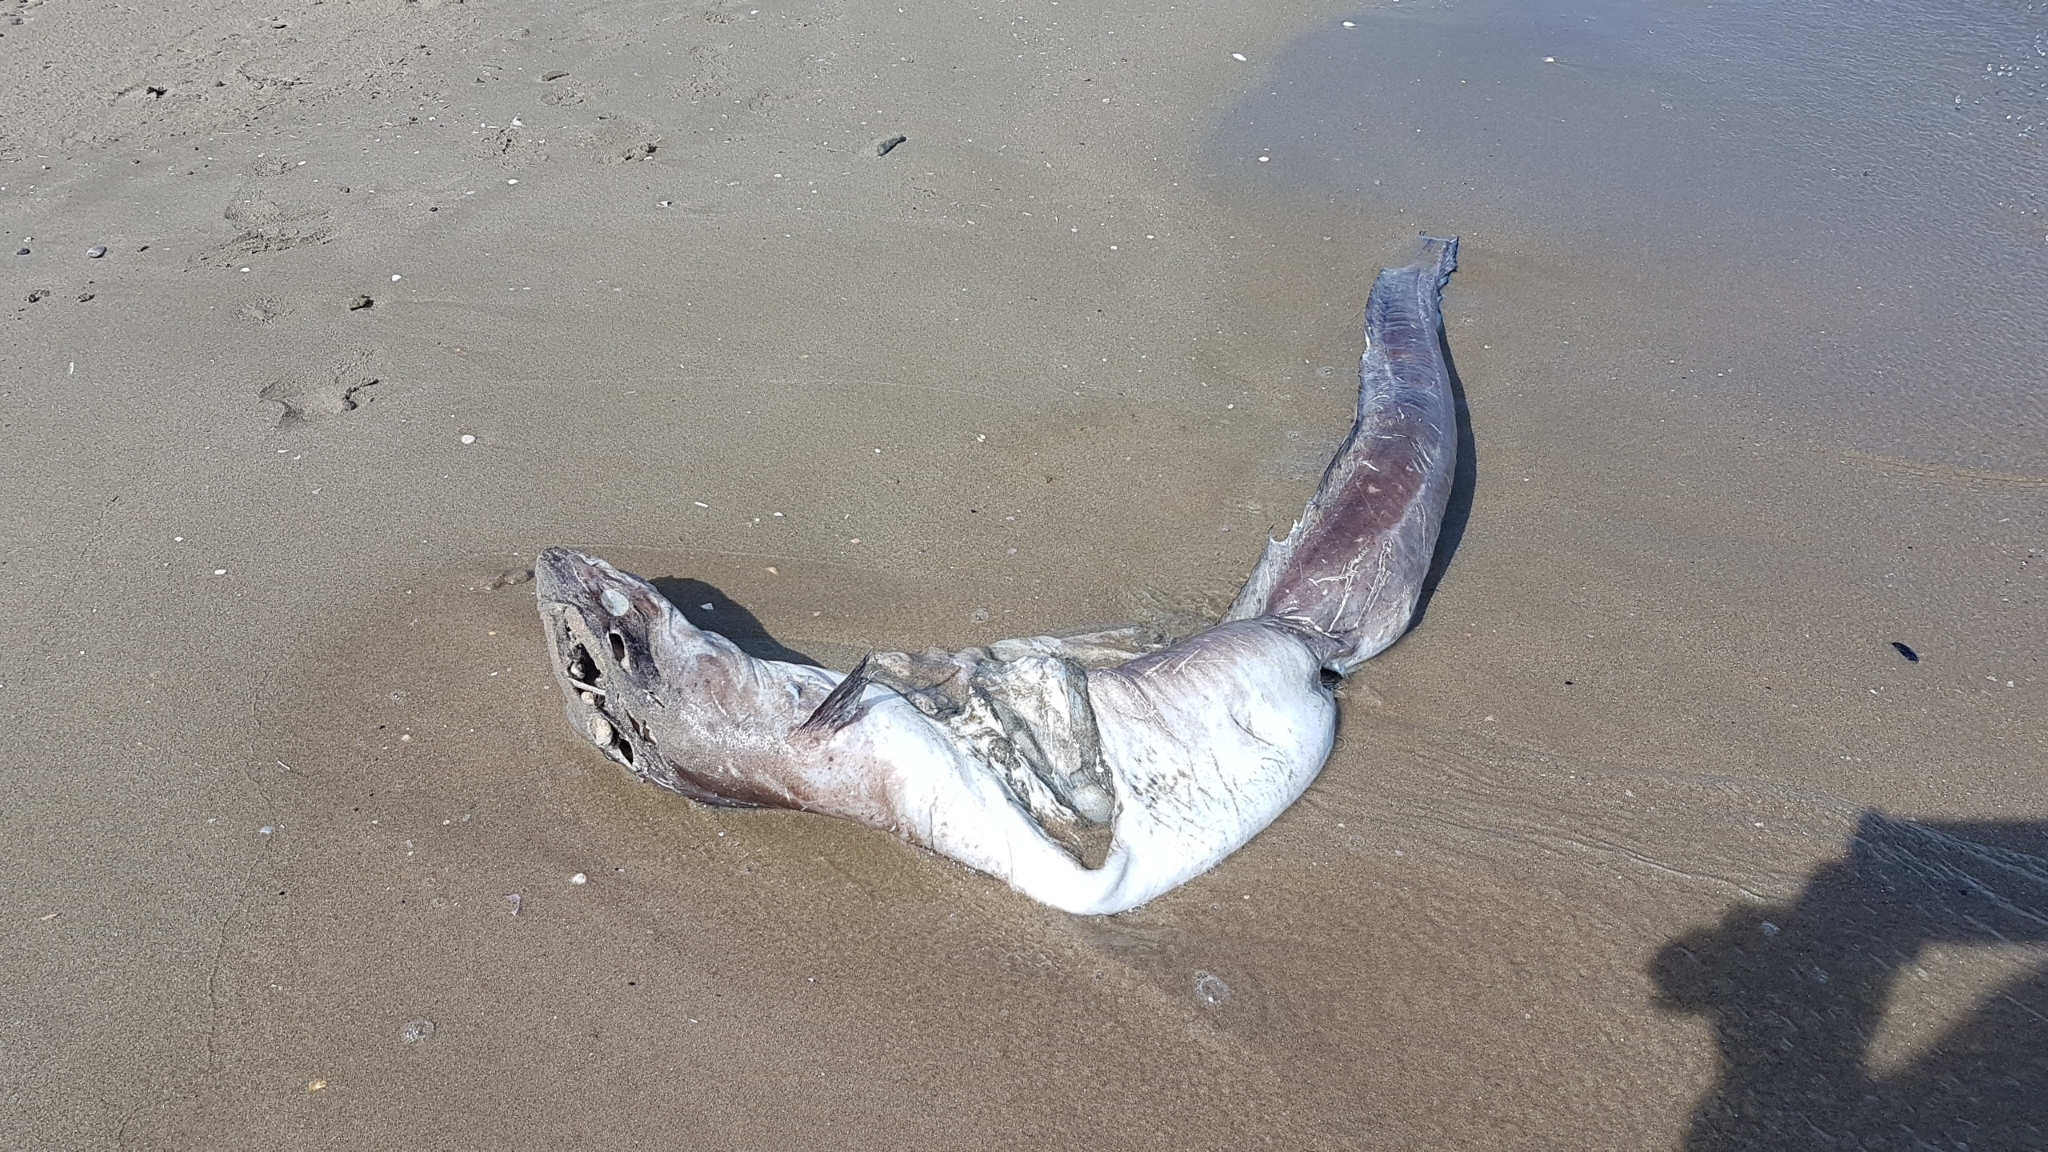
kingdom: Animalia
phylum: Chordata
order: Anguilliformes
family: Congridae
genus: Conger
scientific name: Conger conger
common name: Conger eel
